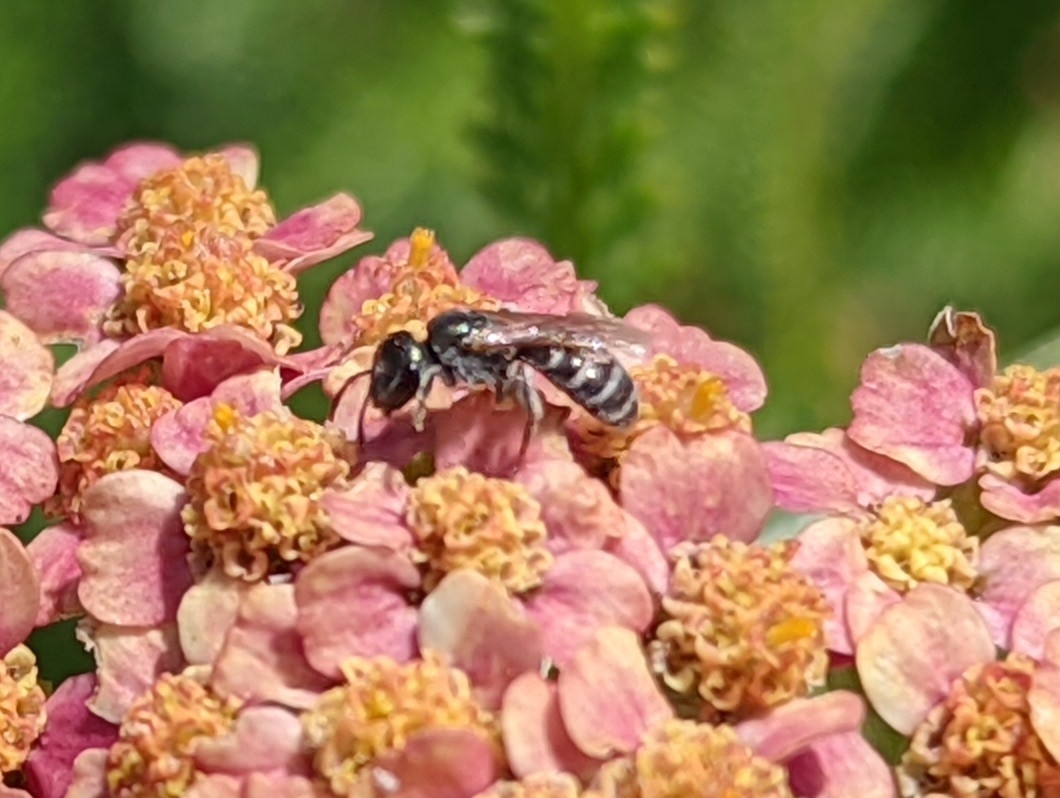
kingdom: Animalia
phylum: Arthropoda
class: Insecta
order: Hymenoptera
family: Halictidae
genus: Halictus
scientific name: Halictus tripartitus
